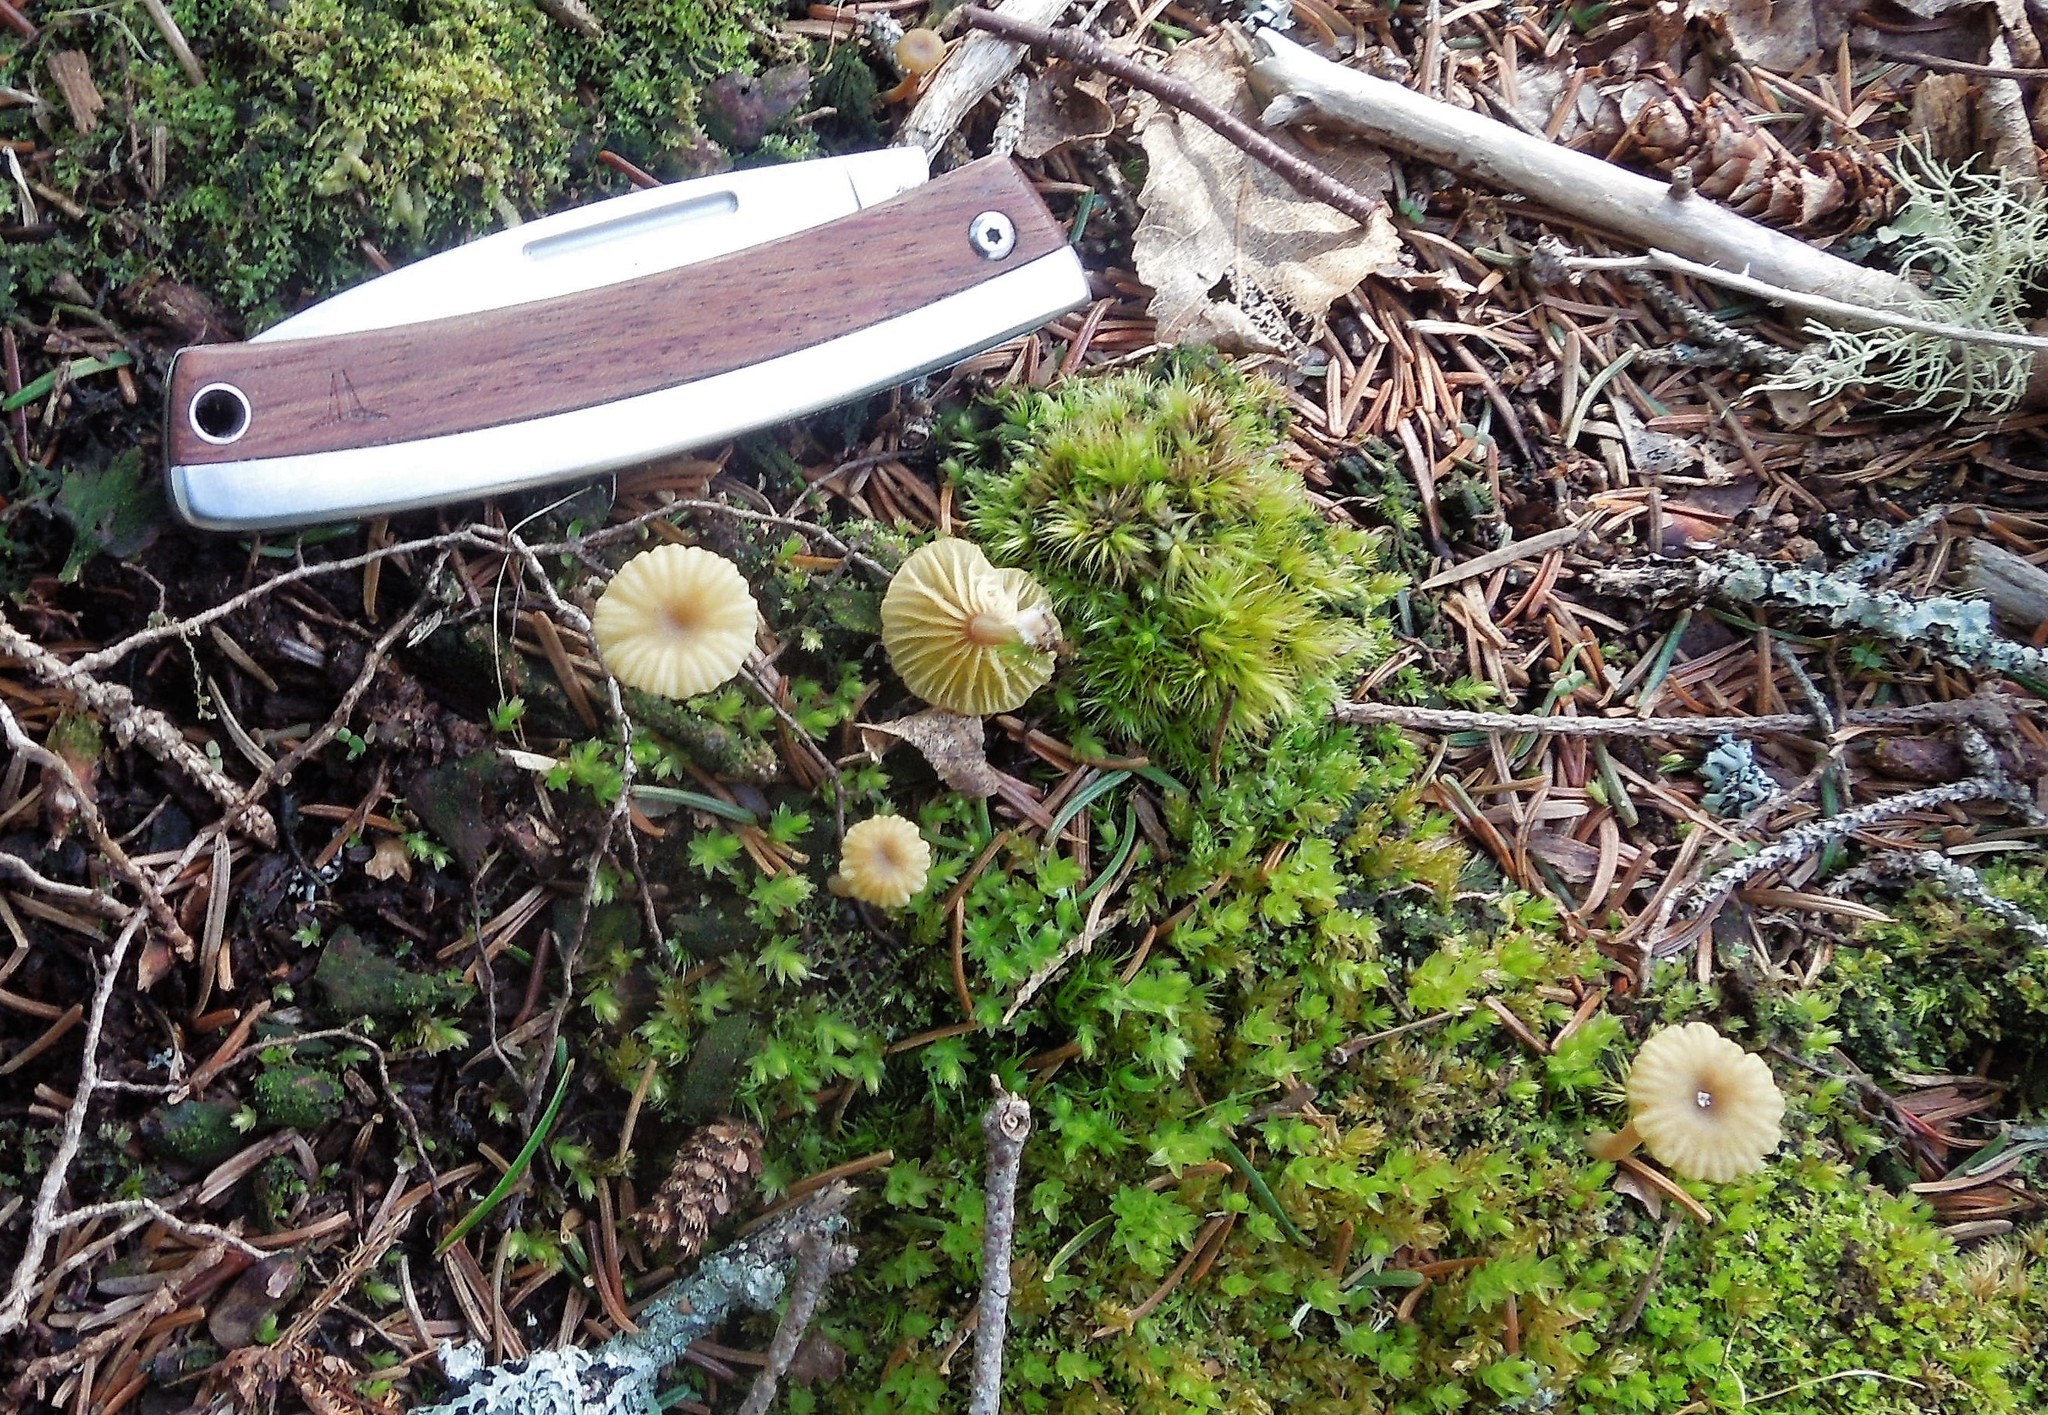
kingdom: Fungi
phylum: Basidiomycota
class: Agaricomycetes
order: Agaricales
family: Hygrophoraceae
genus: Lichenomphalia
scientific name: Lichenomphalia
